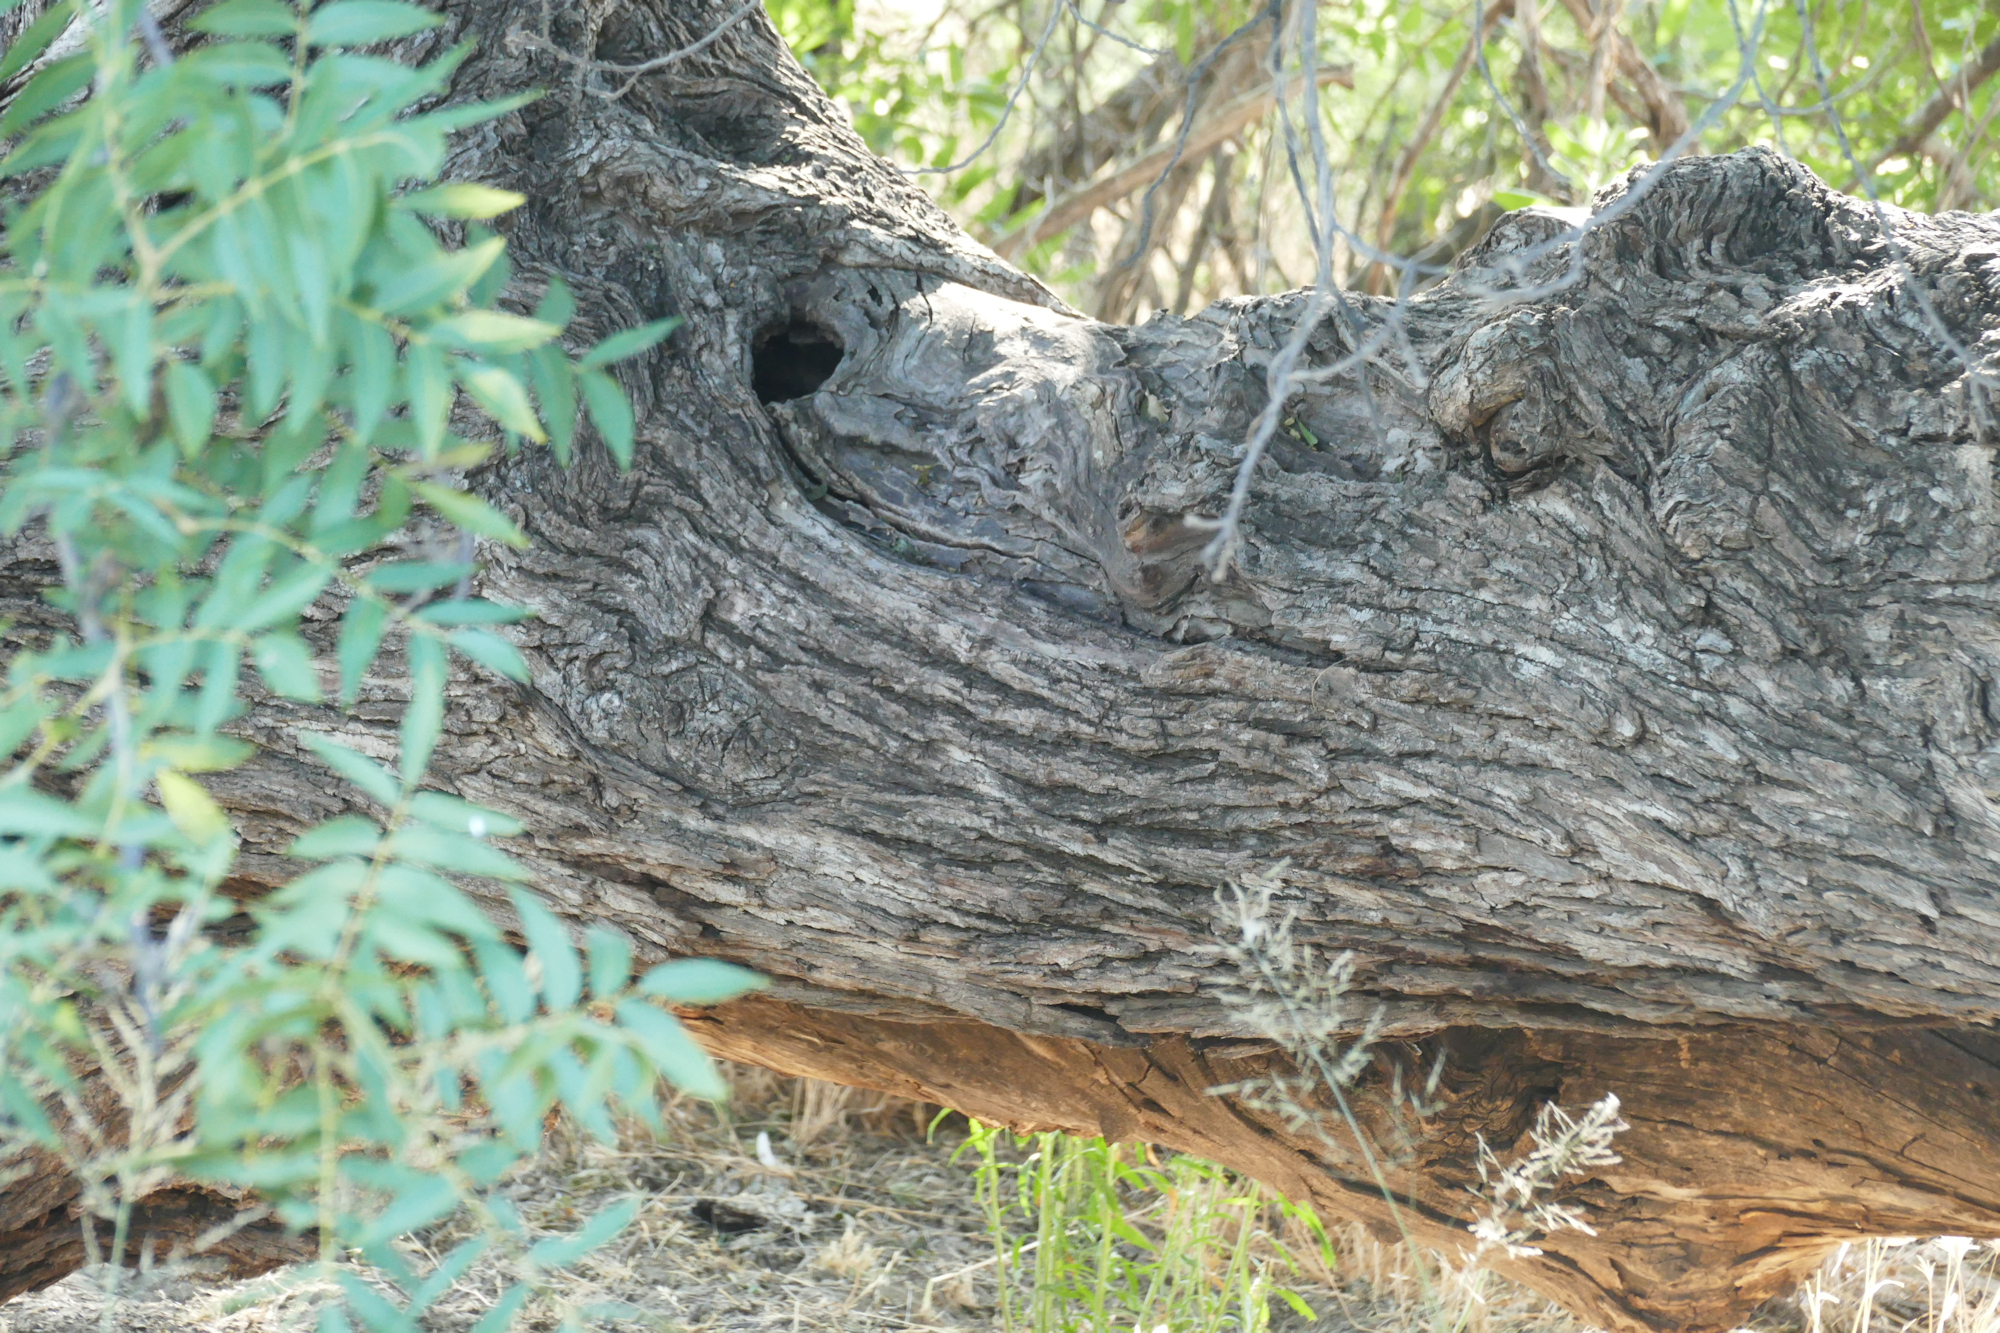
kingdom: Plantae
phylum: Tracheophyta
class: Magnoliopsida
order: Fagales
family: Juglandaceae
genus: Juglans
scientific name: Juglans major
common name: Arizona walnut
